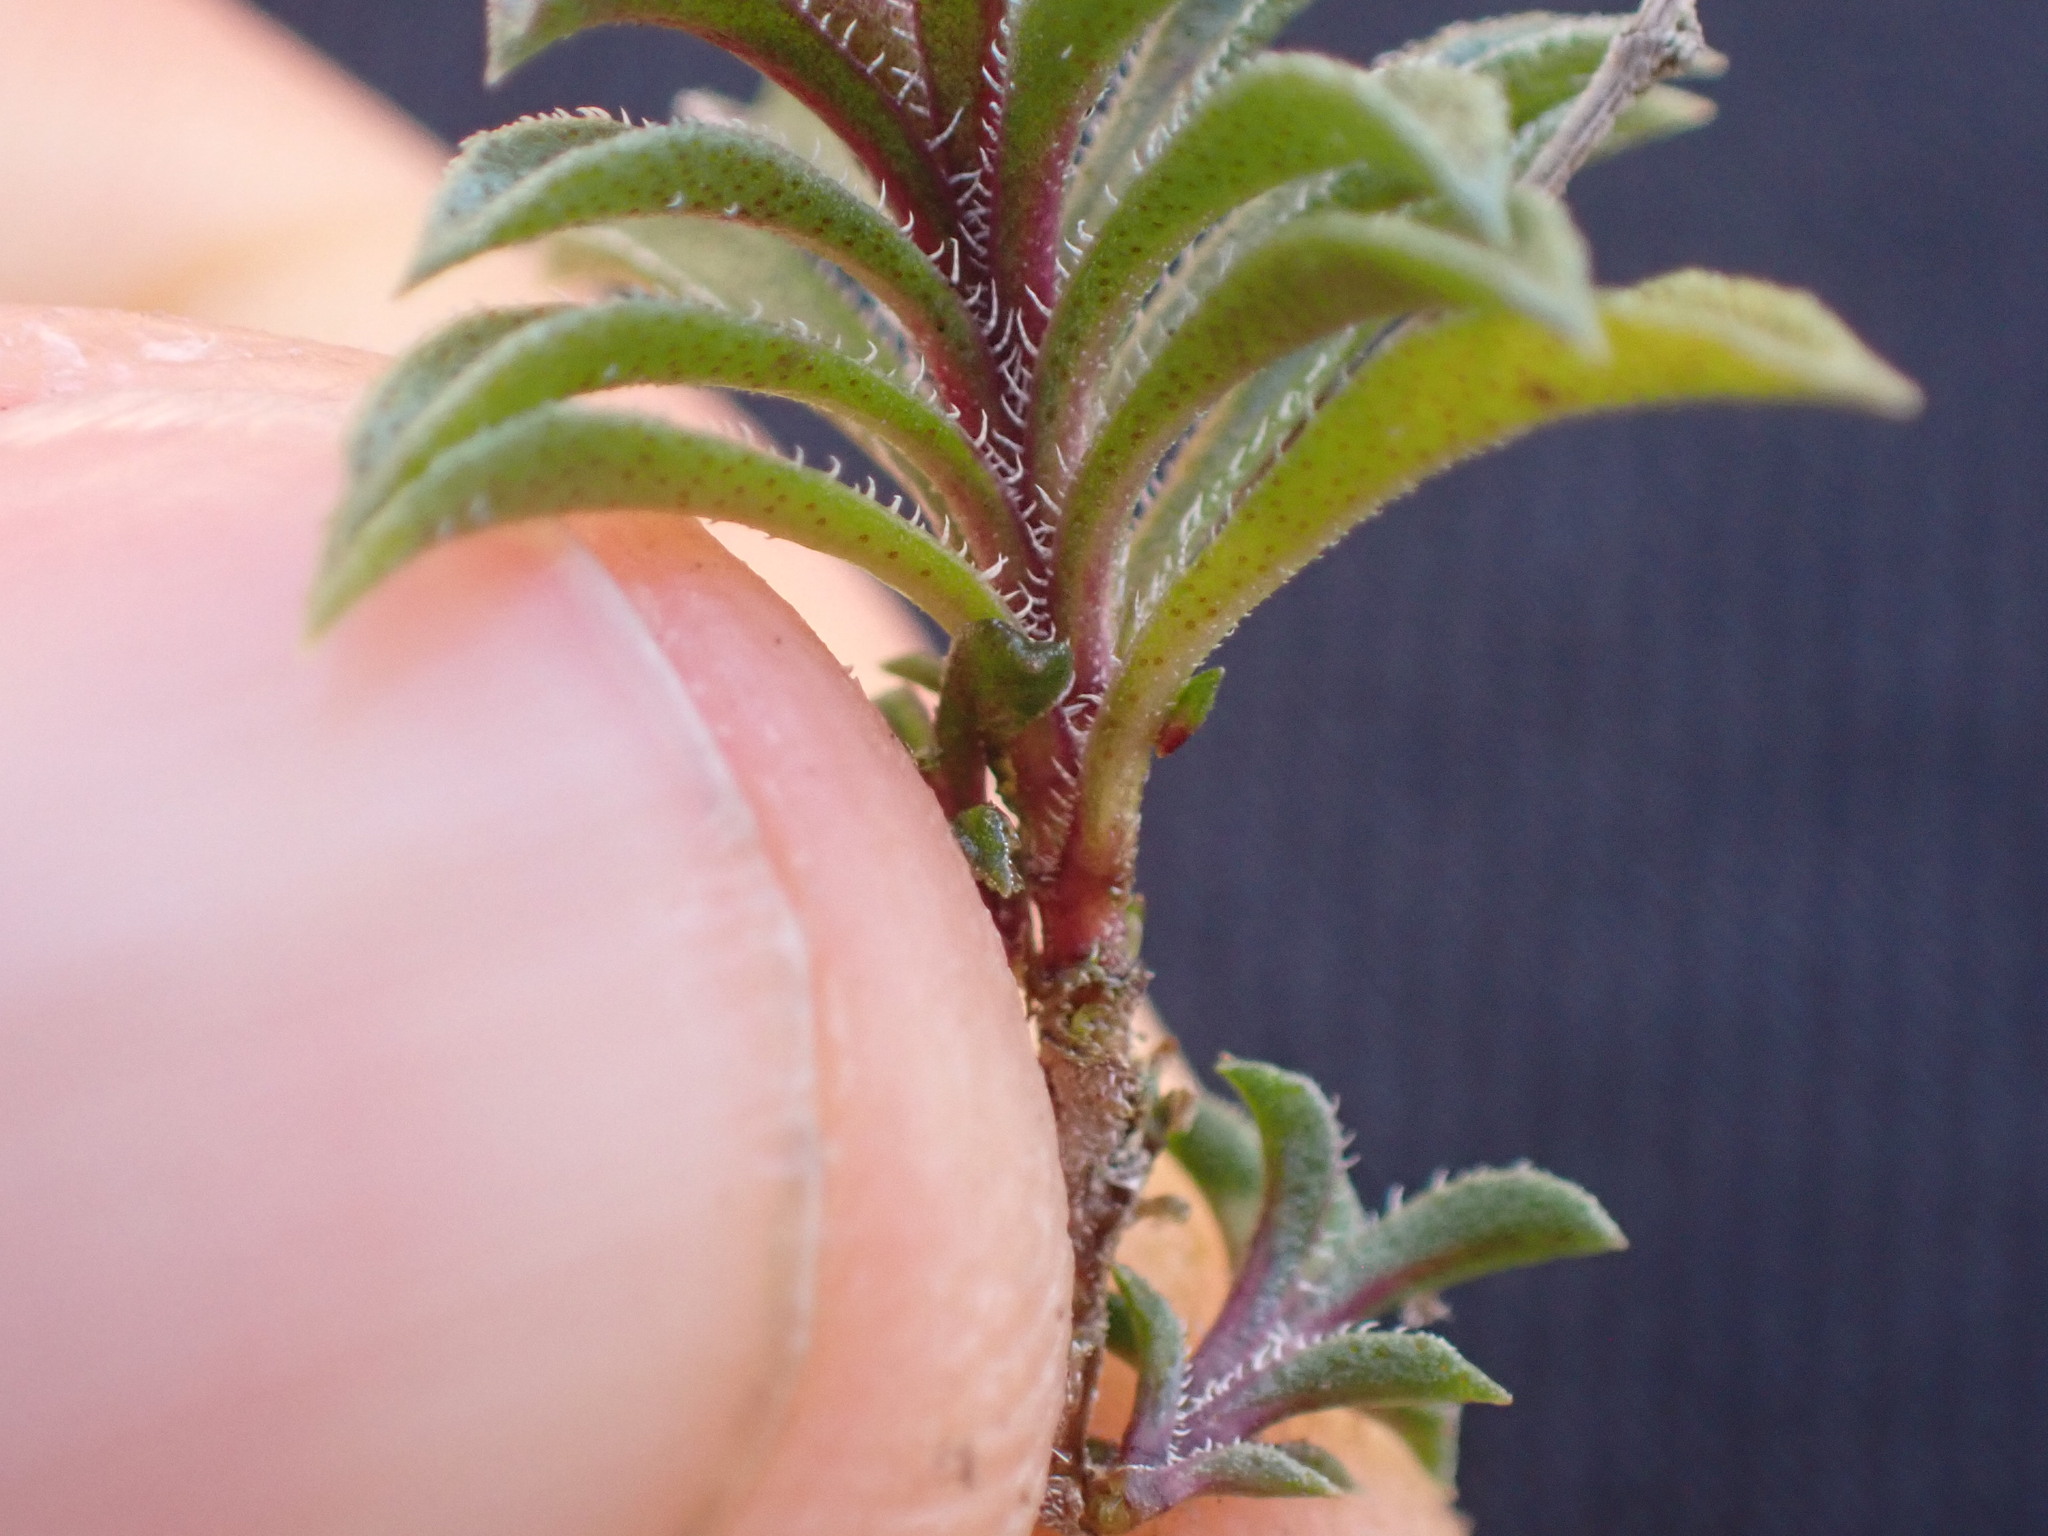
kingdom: Plantae
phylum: Tracheophyta
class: Magnoliopsida
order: Lamiales
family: Lamiaceae
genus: Satureja
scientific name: Satureja montana
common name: Winter savory
